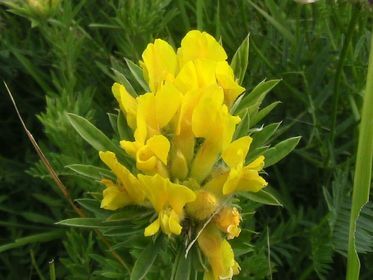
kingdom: Plantae
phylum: Tracheophyta
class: Magnoliopsida
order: Fabales
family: Fabaceae
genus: Chamaecytisus
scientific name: Chamaecytisus austriacus
